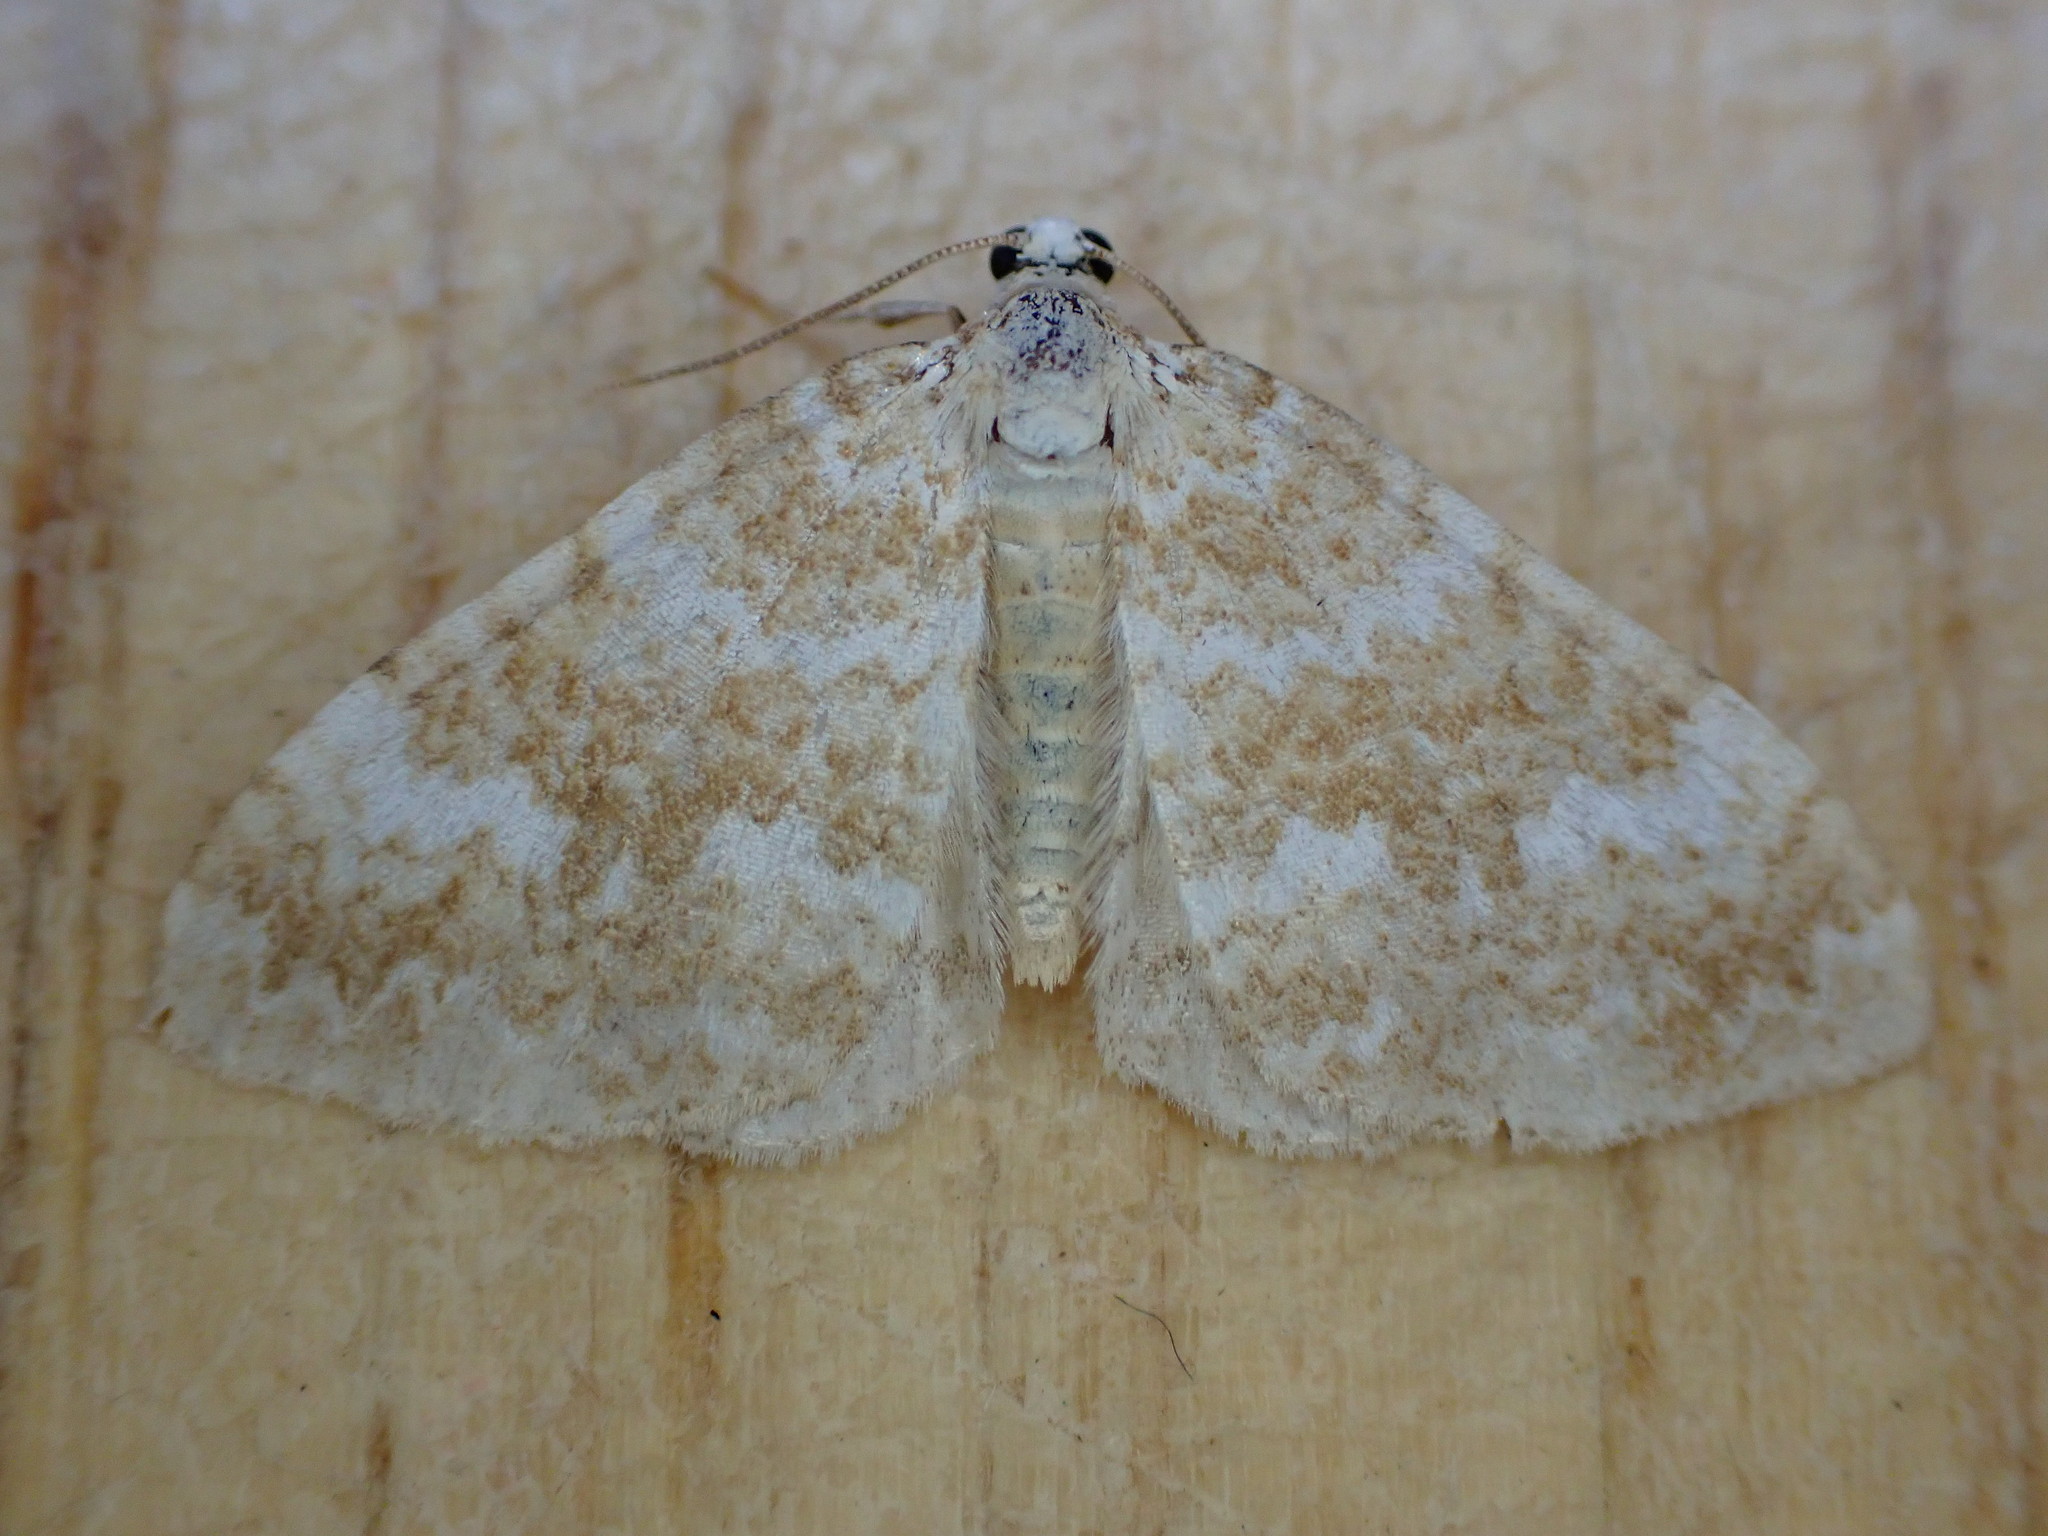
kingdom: Animalia
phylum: Arthropoda
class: Insecta
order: Lepidoptera
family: Geometridae
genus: Perizoma
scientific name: Perizoma flavofasciata
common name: Sandy carpet
